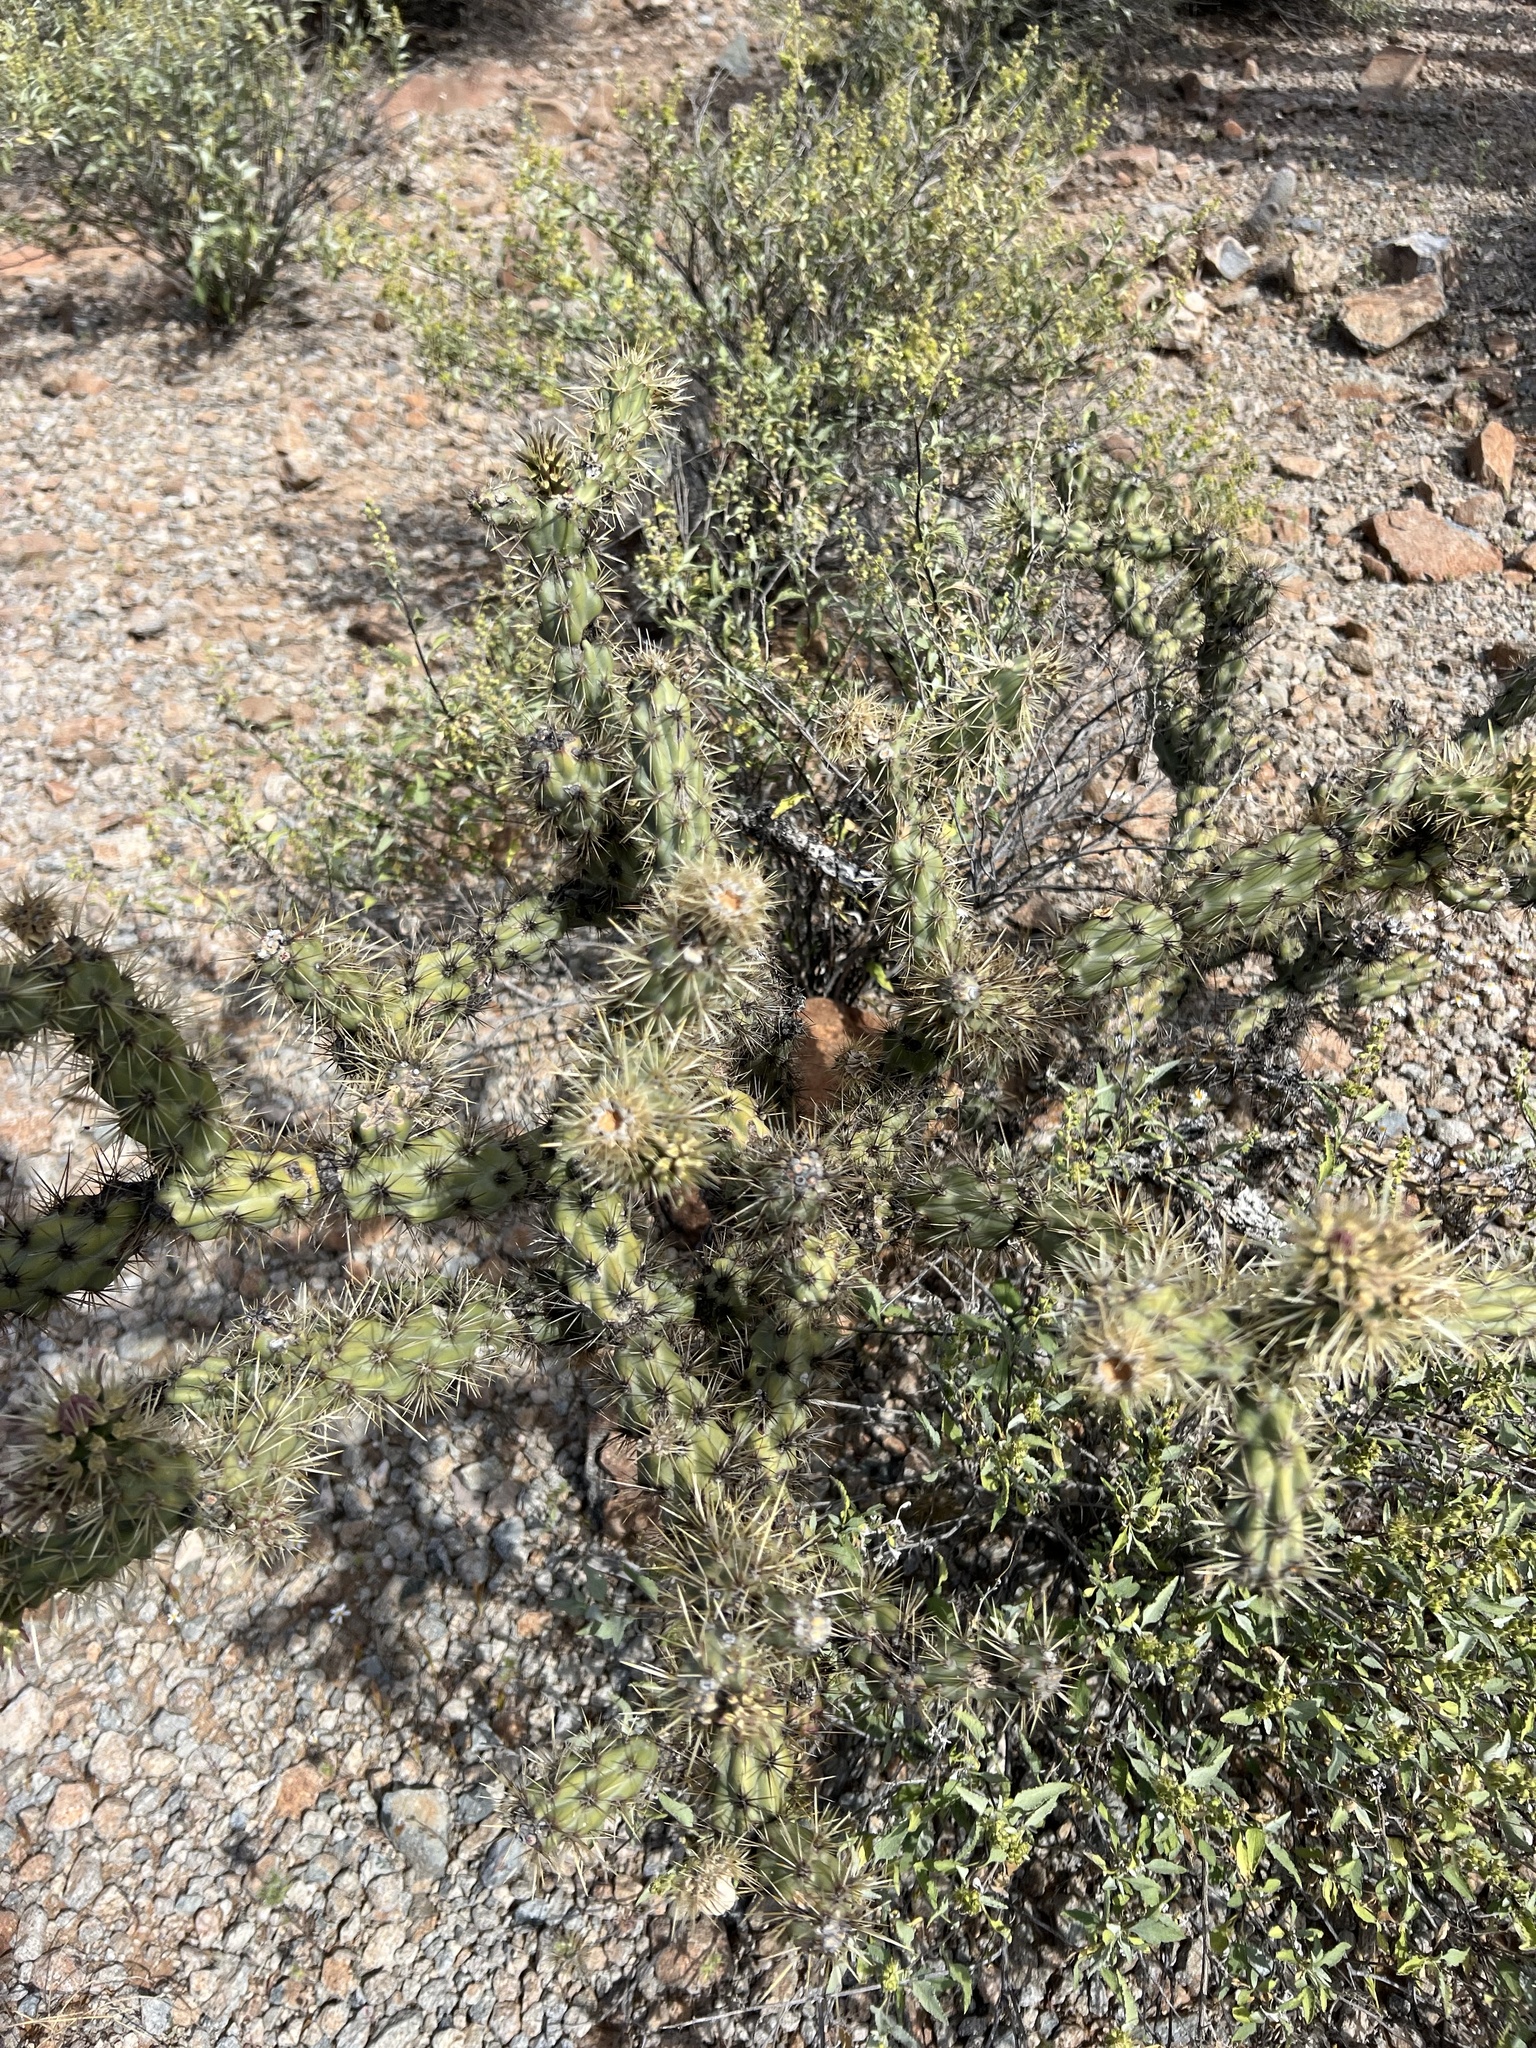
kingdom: Plantae
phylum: Tracheophyta
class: Magnoliopsida
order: Caryophyllales
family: Cactaceae
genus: Cylindropuntia
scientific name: Cylindropuntia acanthocarpa
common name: Buckhorn cholla
